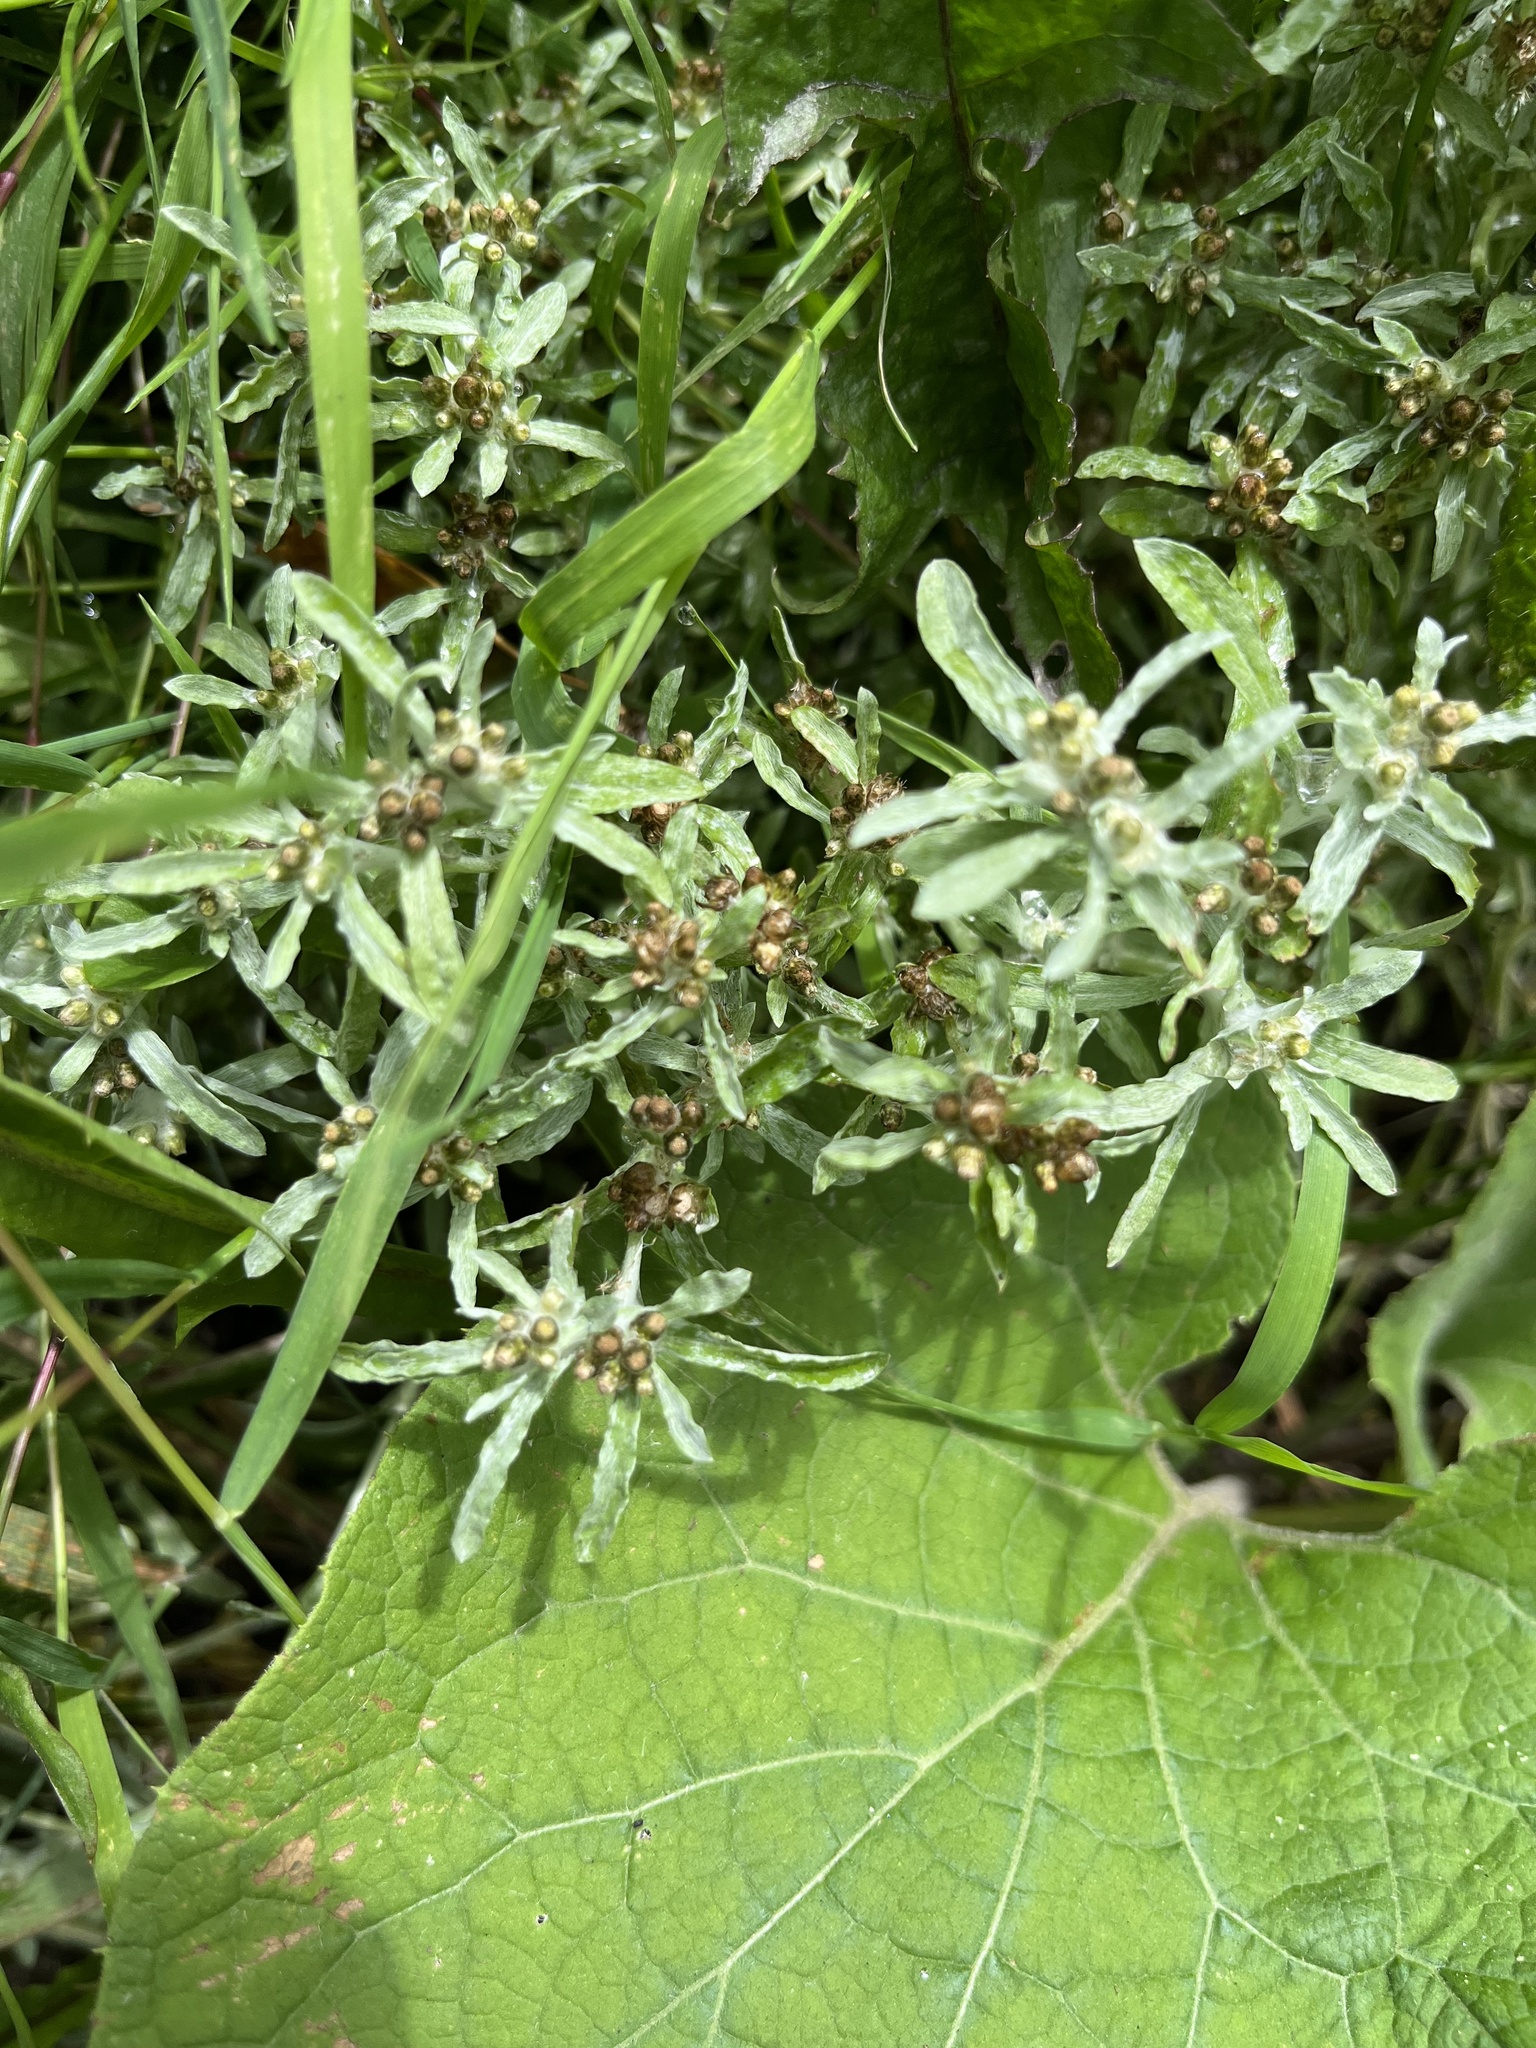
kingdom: Plantae
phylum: Tracheophyta
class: Magnoliopsida
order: Asterales
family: Asteraceae
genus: Gnaphalium
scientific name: Gnaphalium uliginosum
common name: Marsh cudweed
